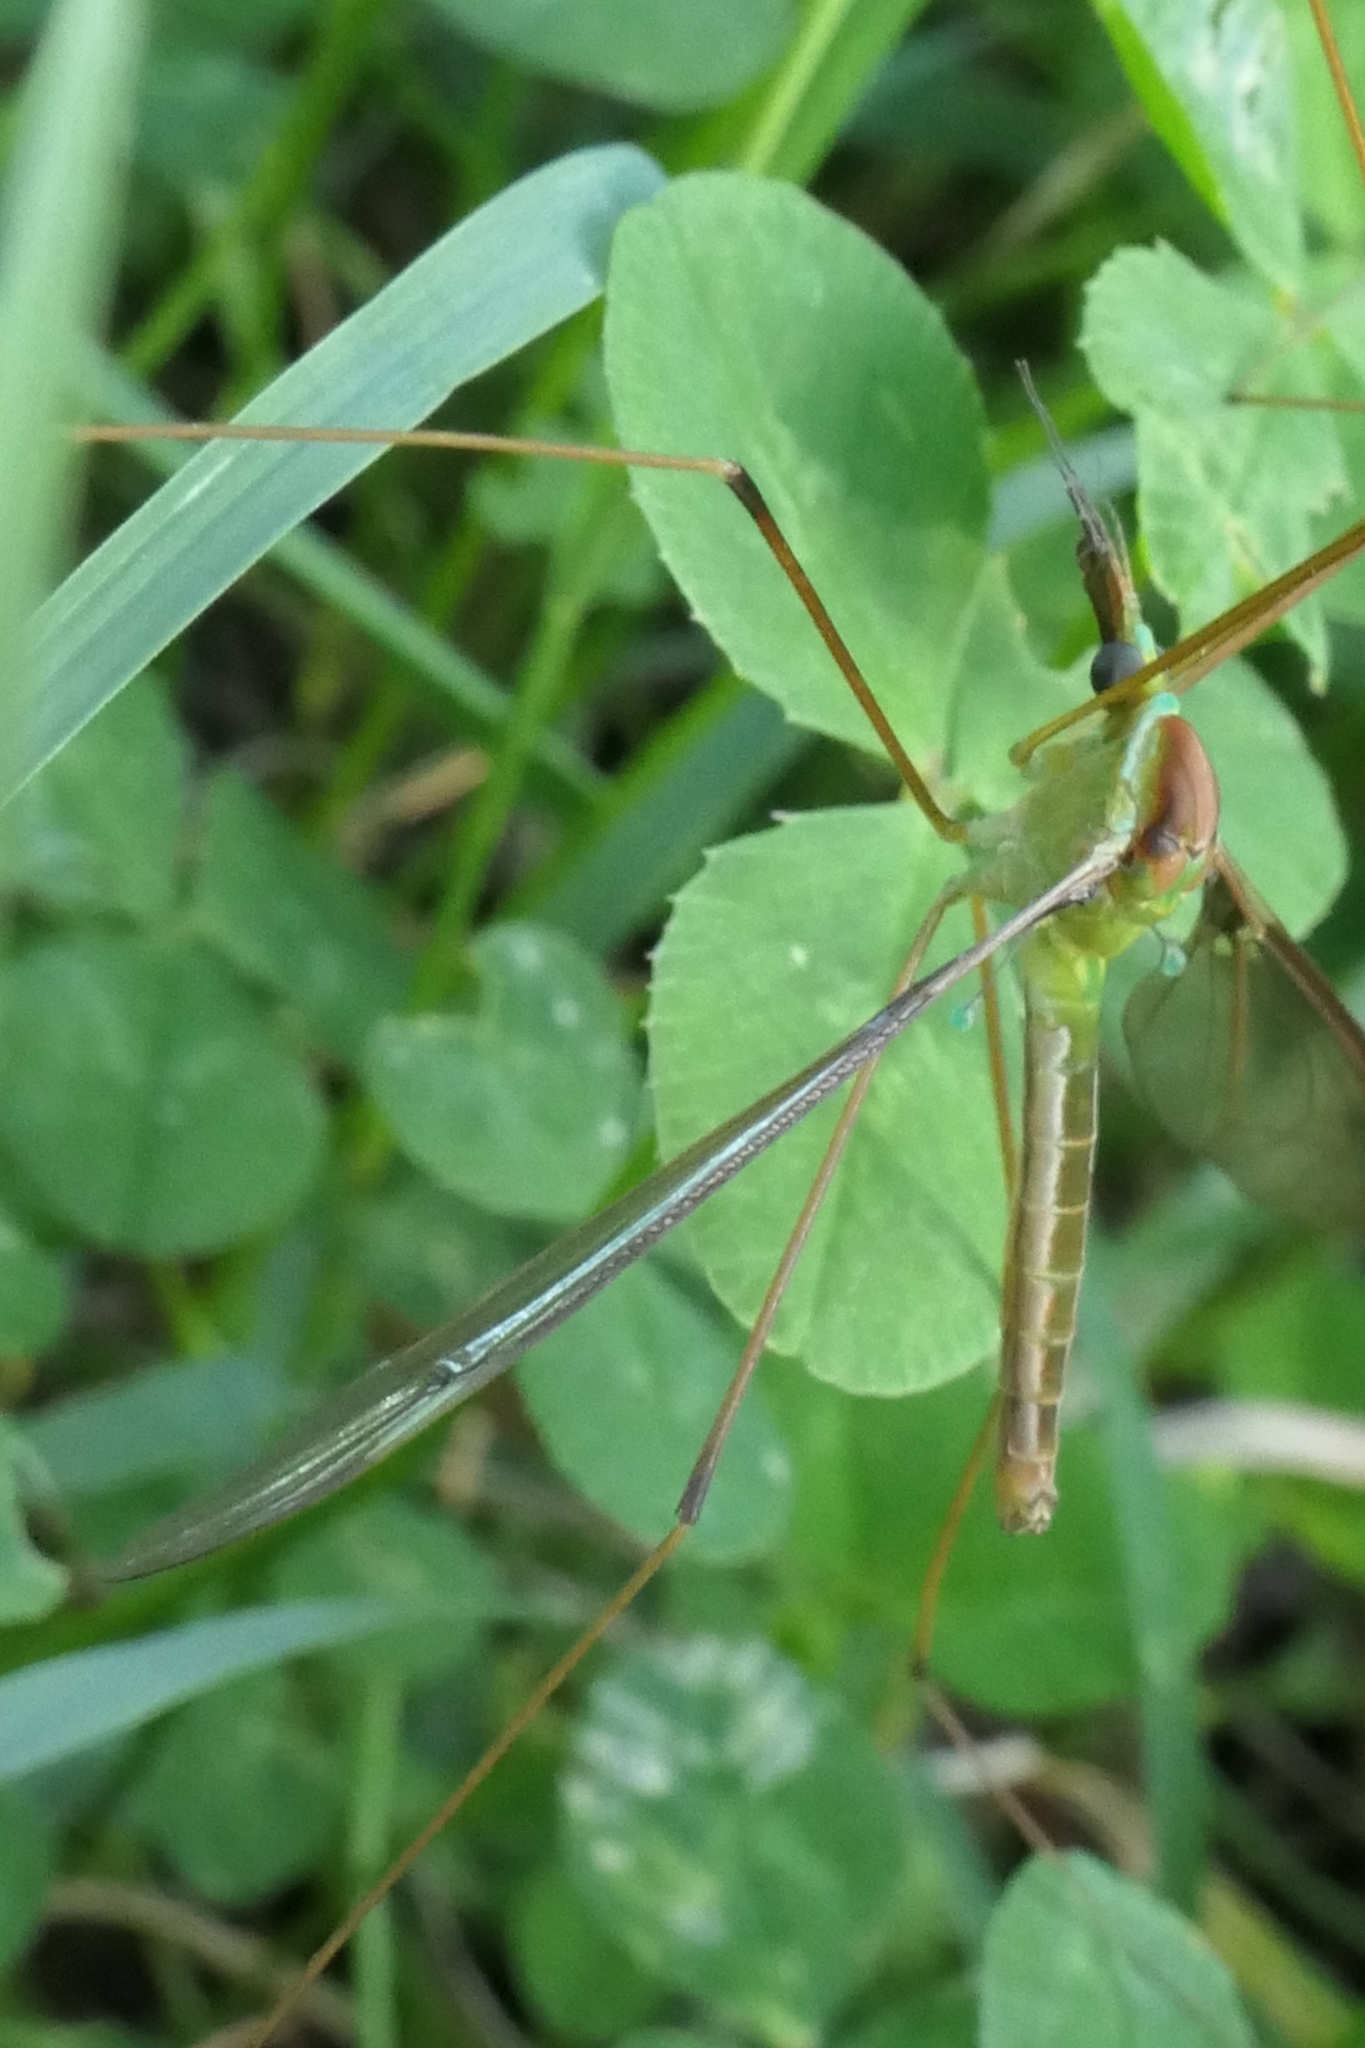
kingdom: Animalia
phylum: Arthropoda
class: Insecta
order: Diptera
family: Tipulidae
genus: Leptotarsus
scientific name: Leptotarsus albistigma
